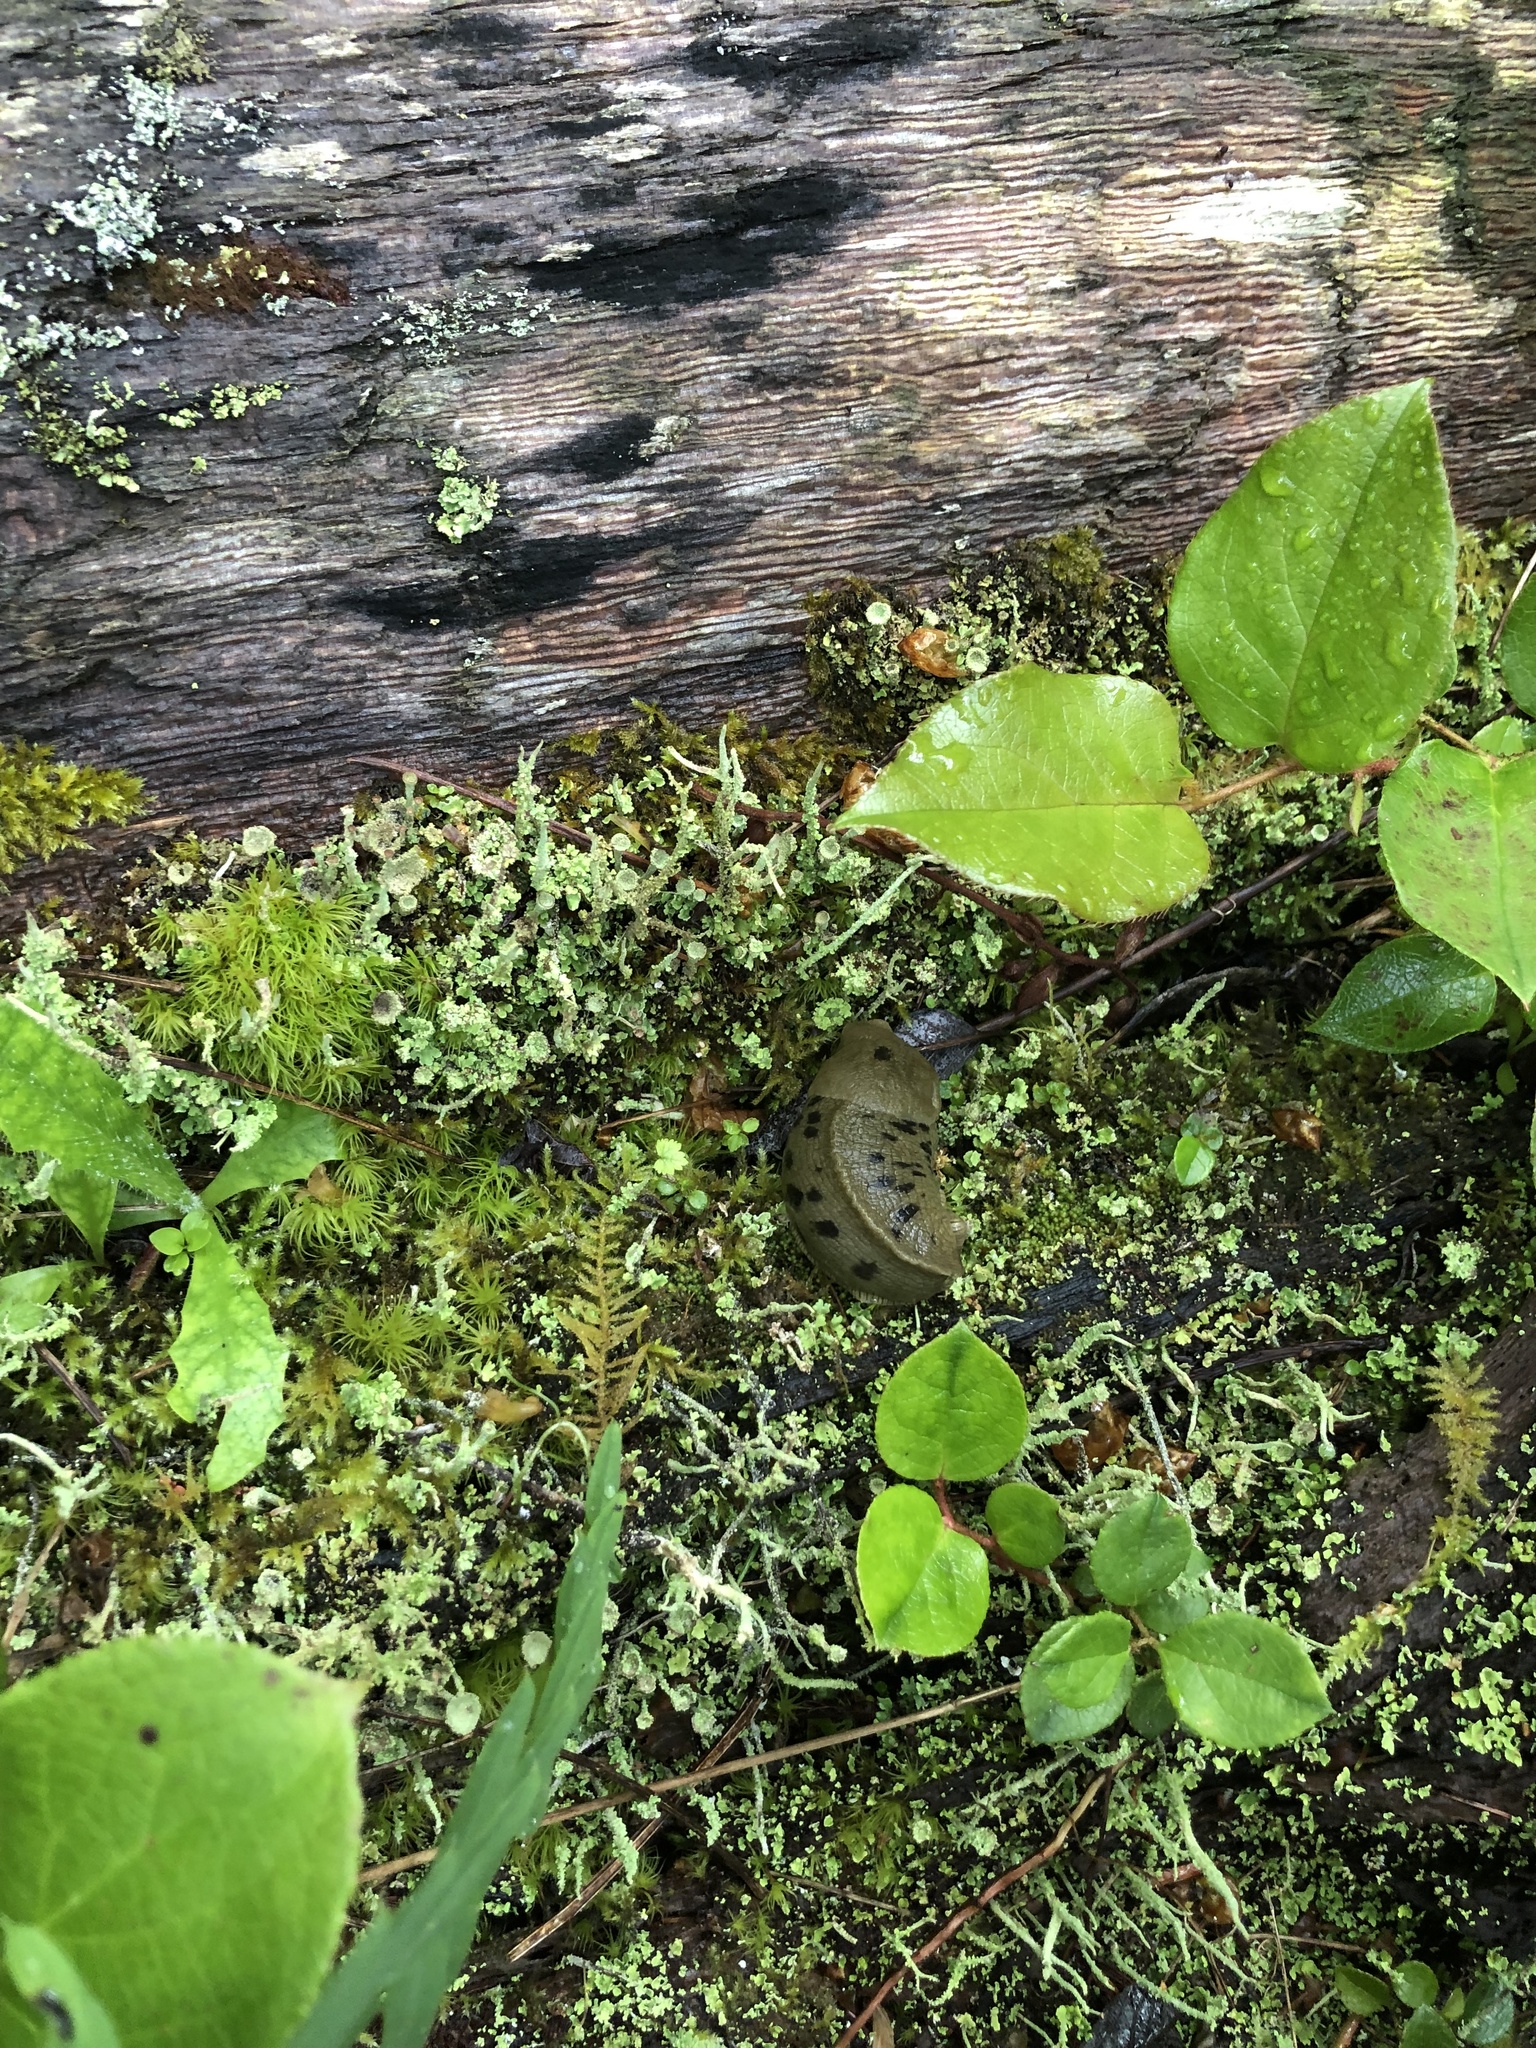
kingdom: Animalia
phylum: Mollusca
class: Gastropoda
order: Stylommatophora
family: Ariolimacidae
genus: Ariolimax
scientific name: Ariolimax columbianus
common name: Pacific banana slug
